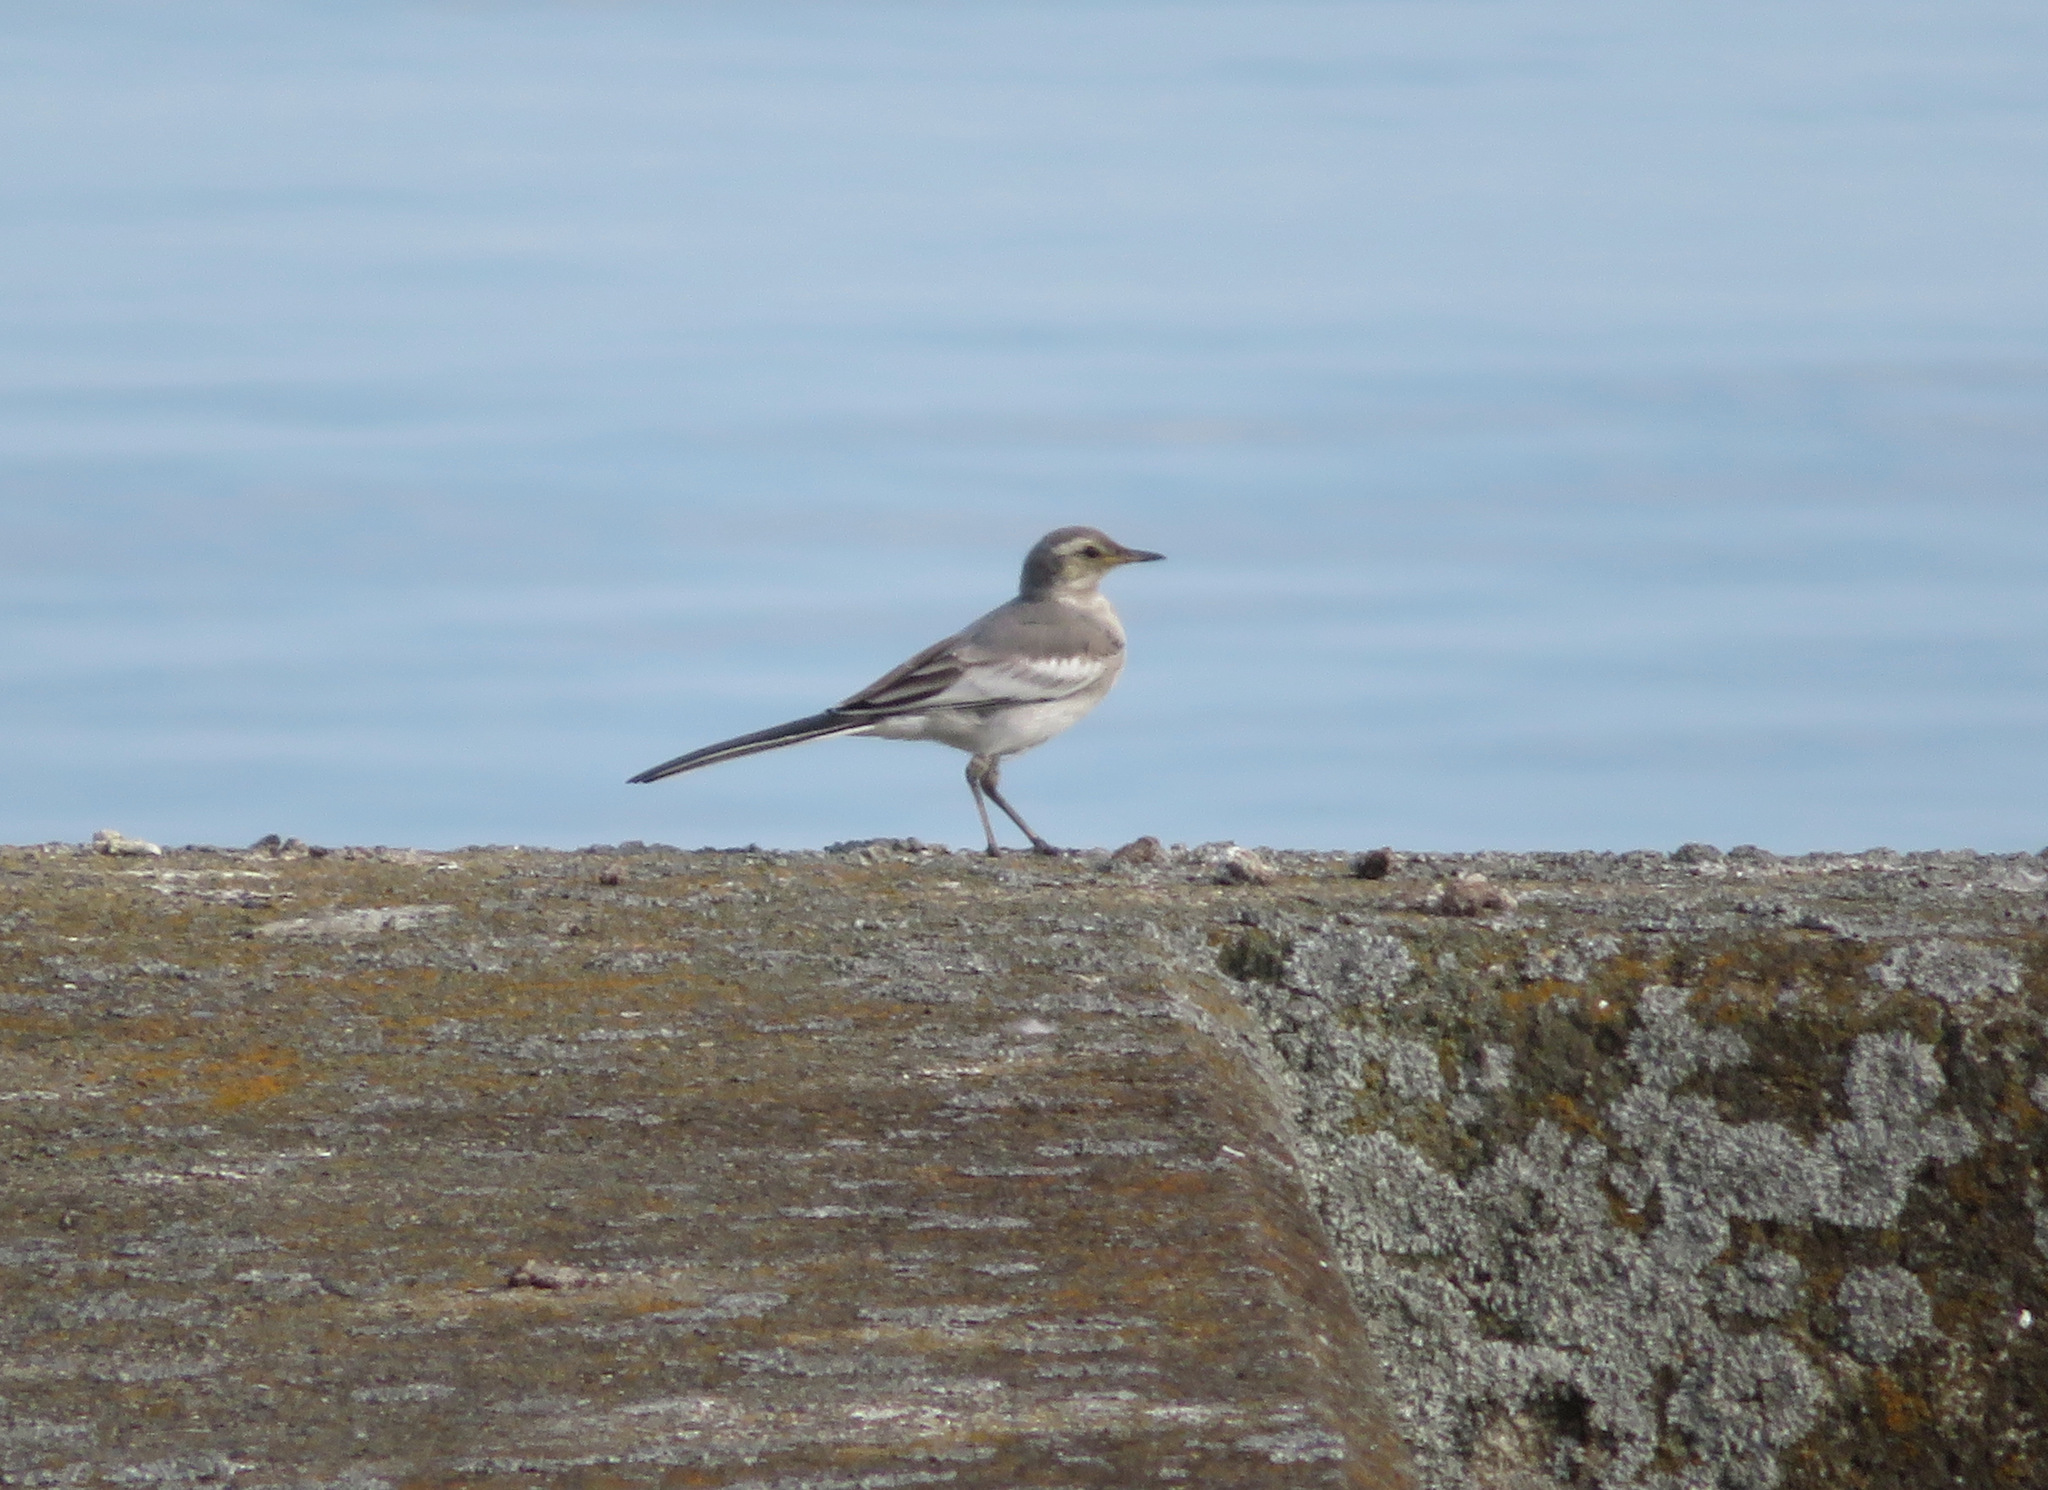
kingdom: Animalia
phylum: Chordata
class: Aves
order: Passeriformes
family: Motacillidae
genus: Motacilla
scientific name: Motacilla alba
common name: White wagtail
